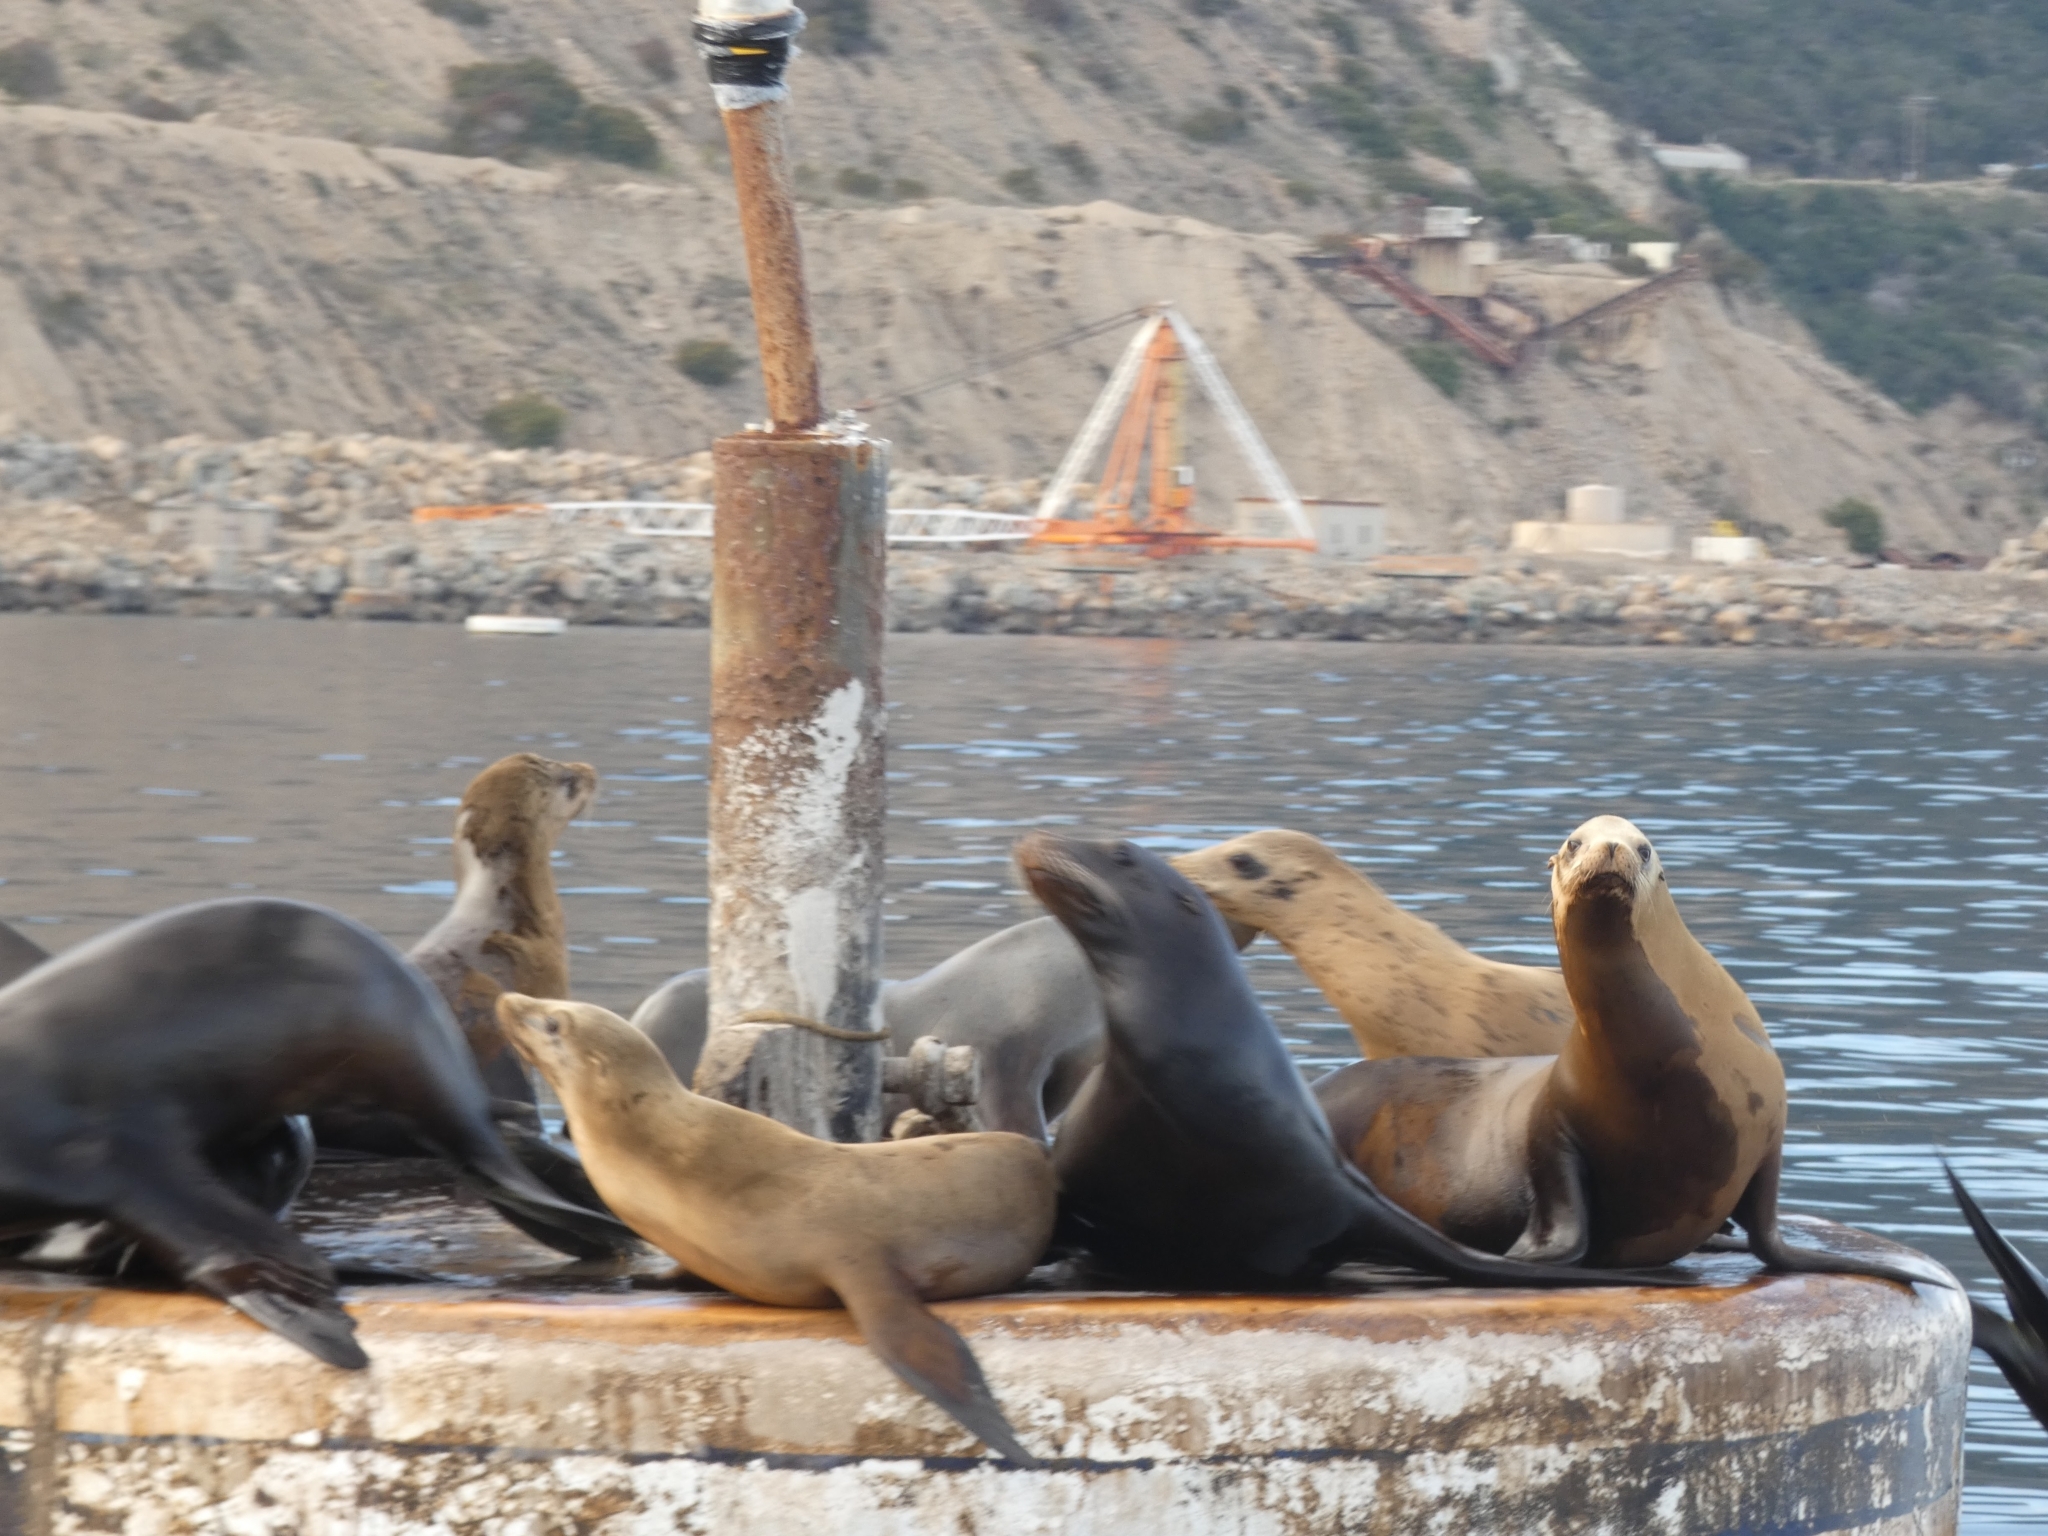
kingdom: Animalia
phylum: Chordata
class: Mammalia
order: Carnivora
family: Otariidae
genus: Zalophus
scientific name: Zalophus californianus
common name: California sea lion
